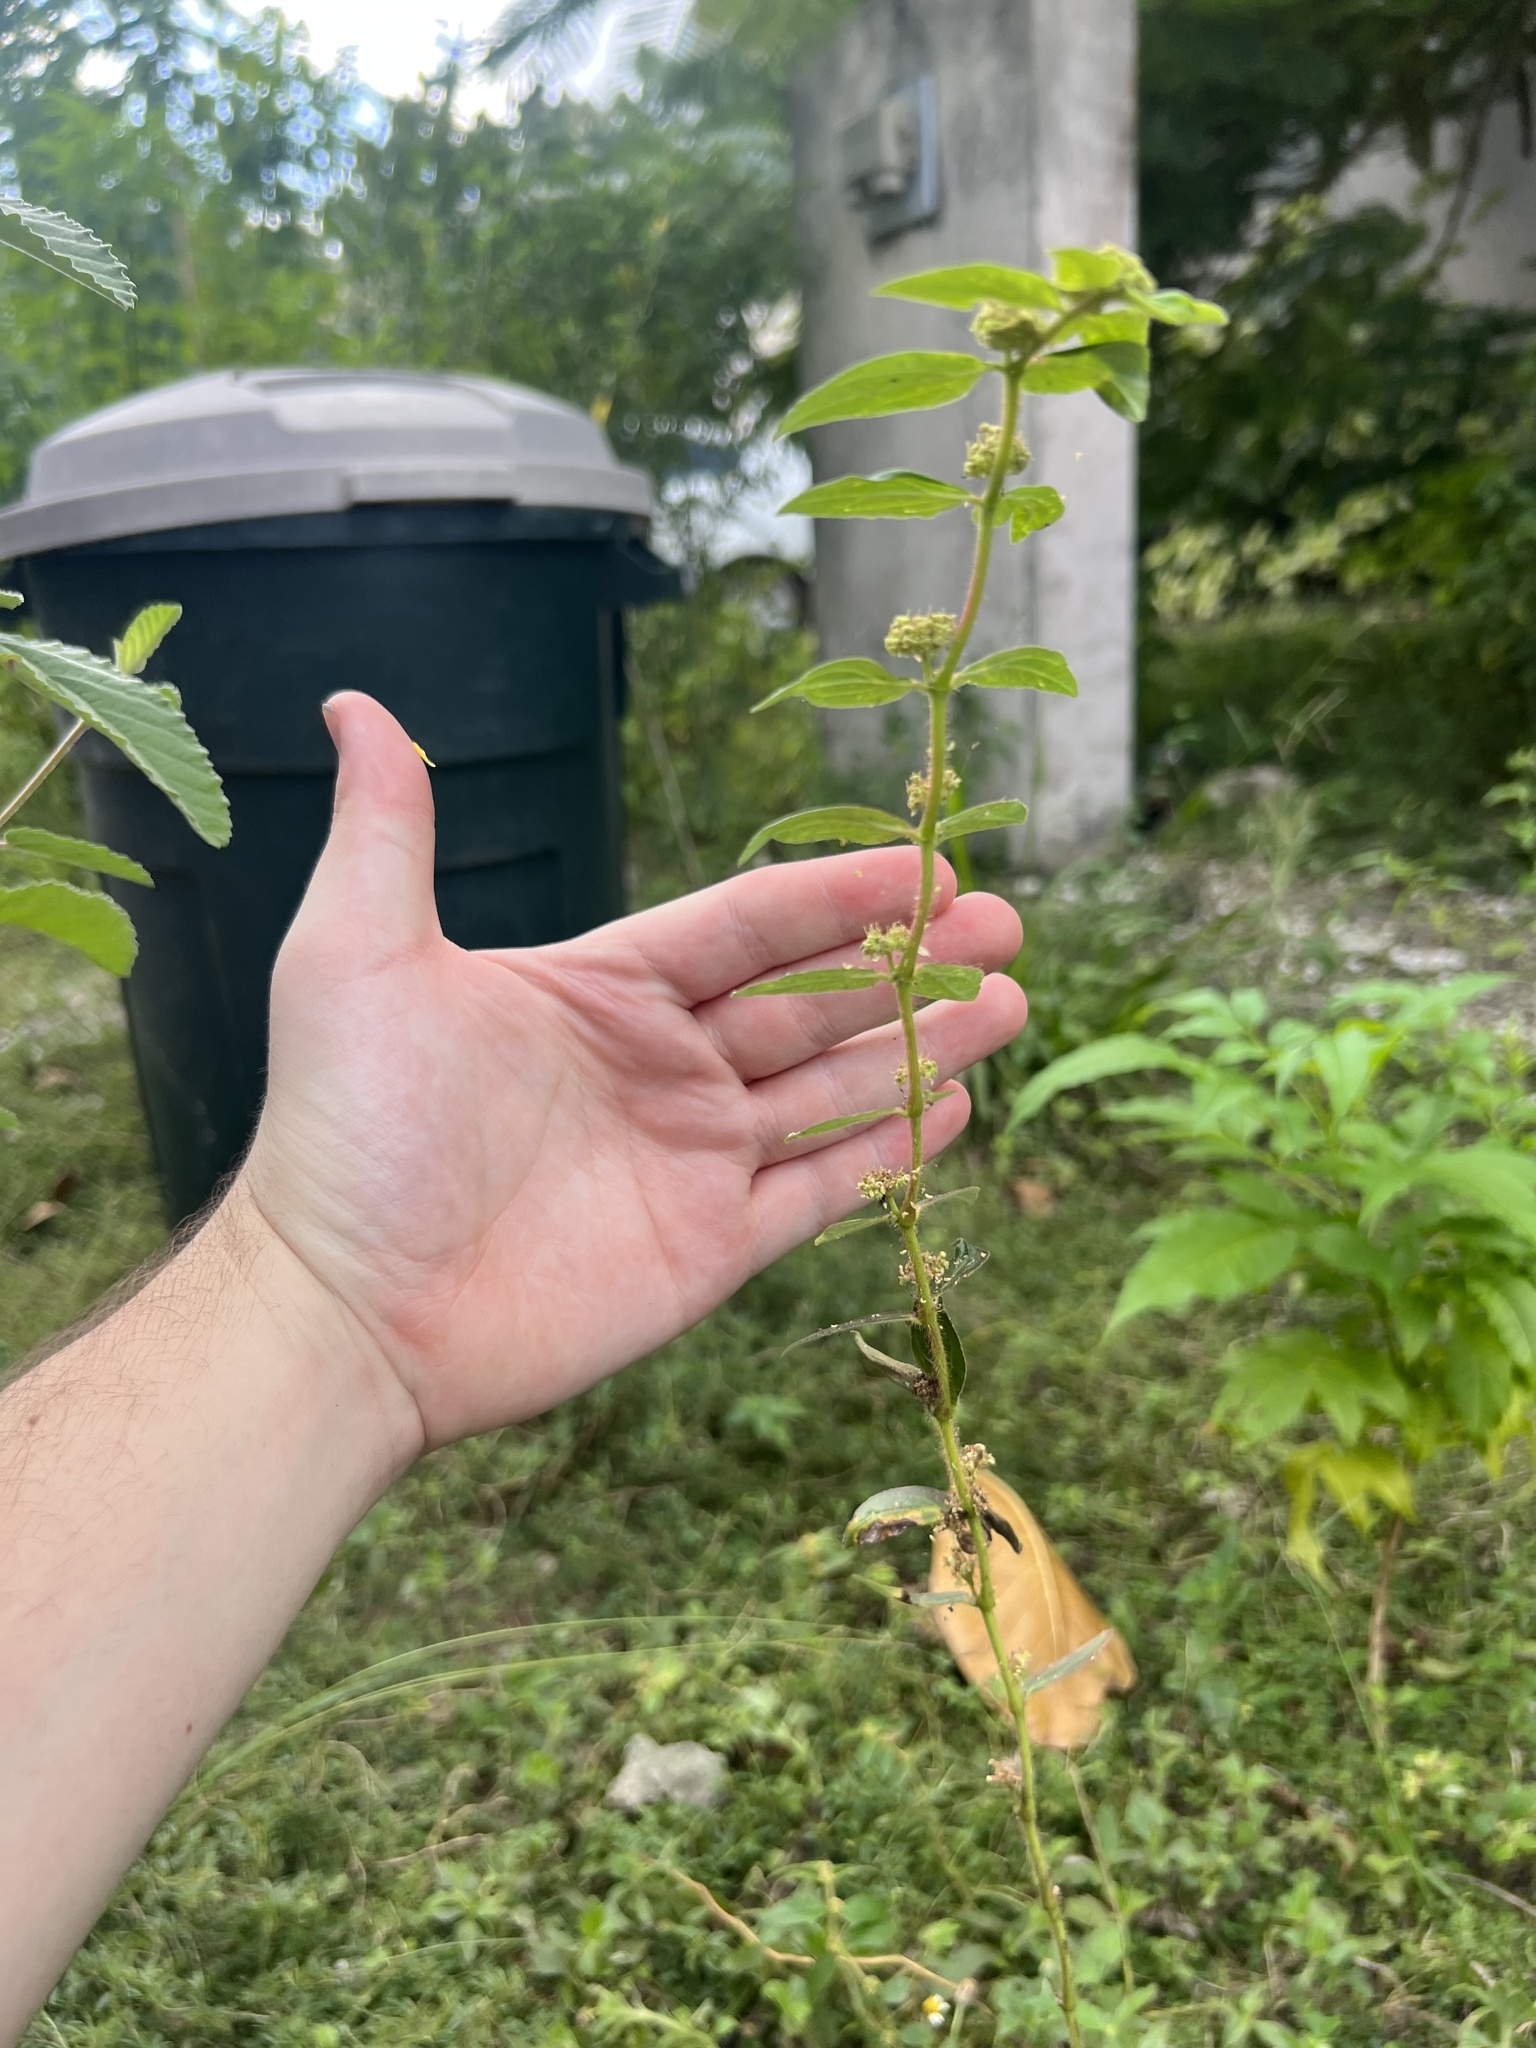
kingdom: Plantae
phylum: Tracheophyta
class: Magnoliopsida
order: Malpighiales
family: Euphorbiaceae
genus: Euphorbia
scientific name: Euphorbia hirta
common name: Pillpod sandmat
